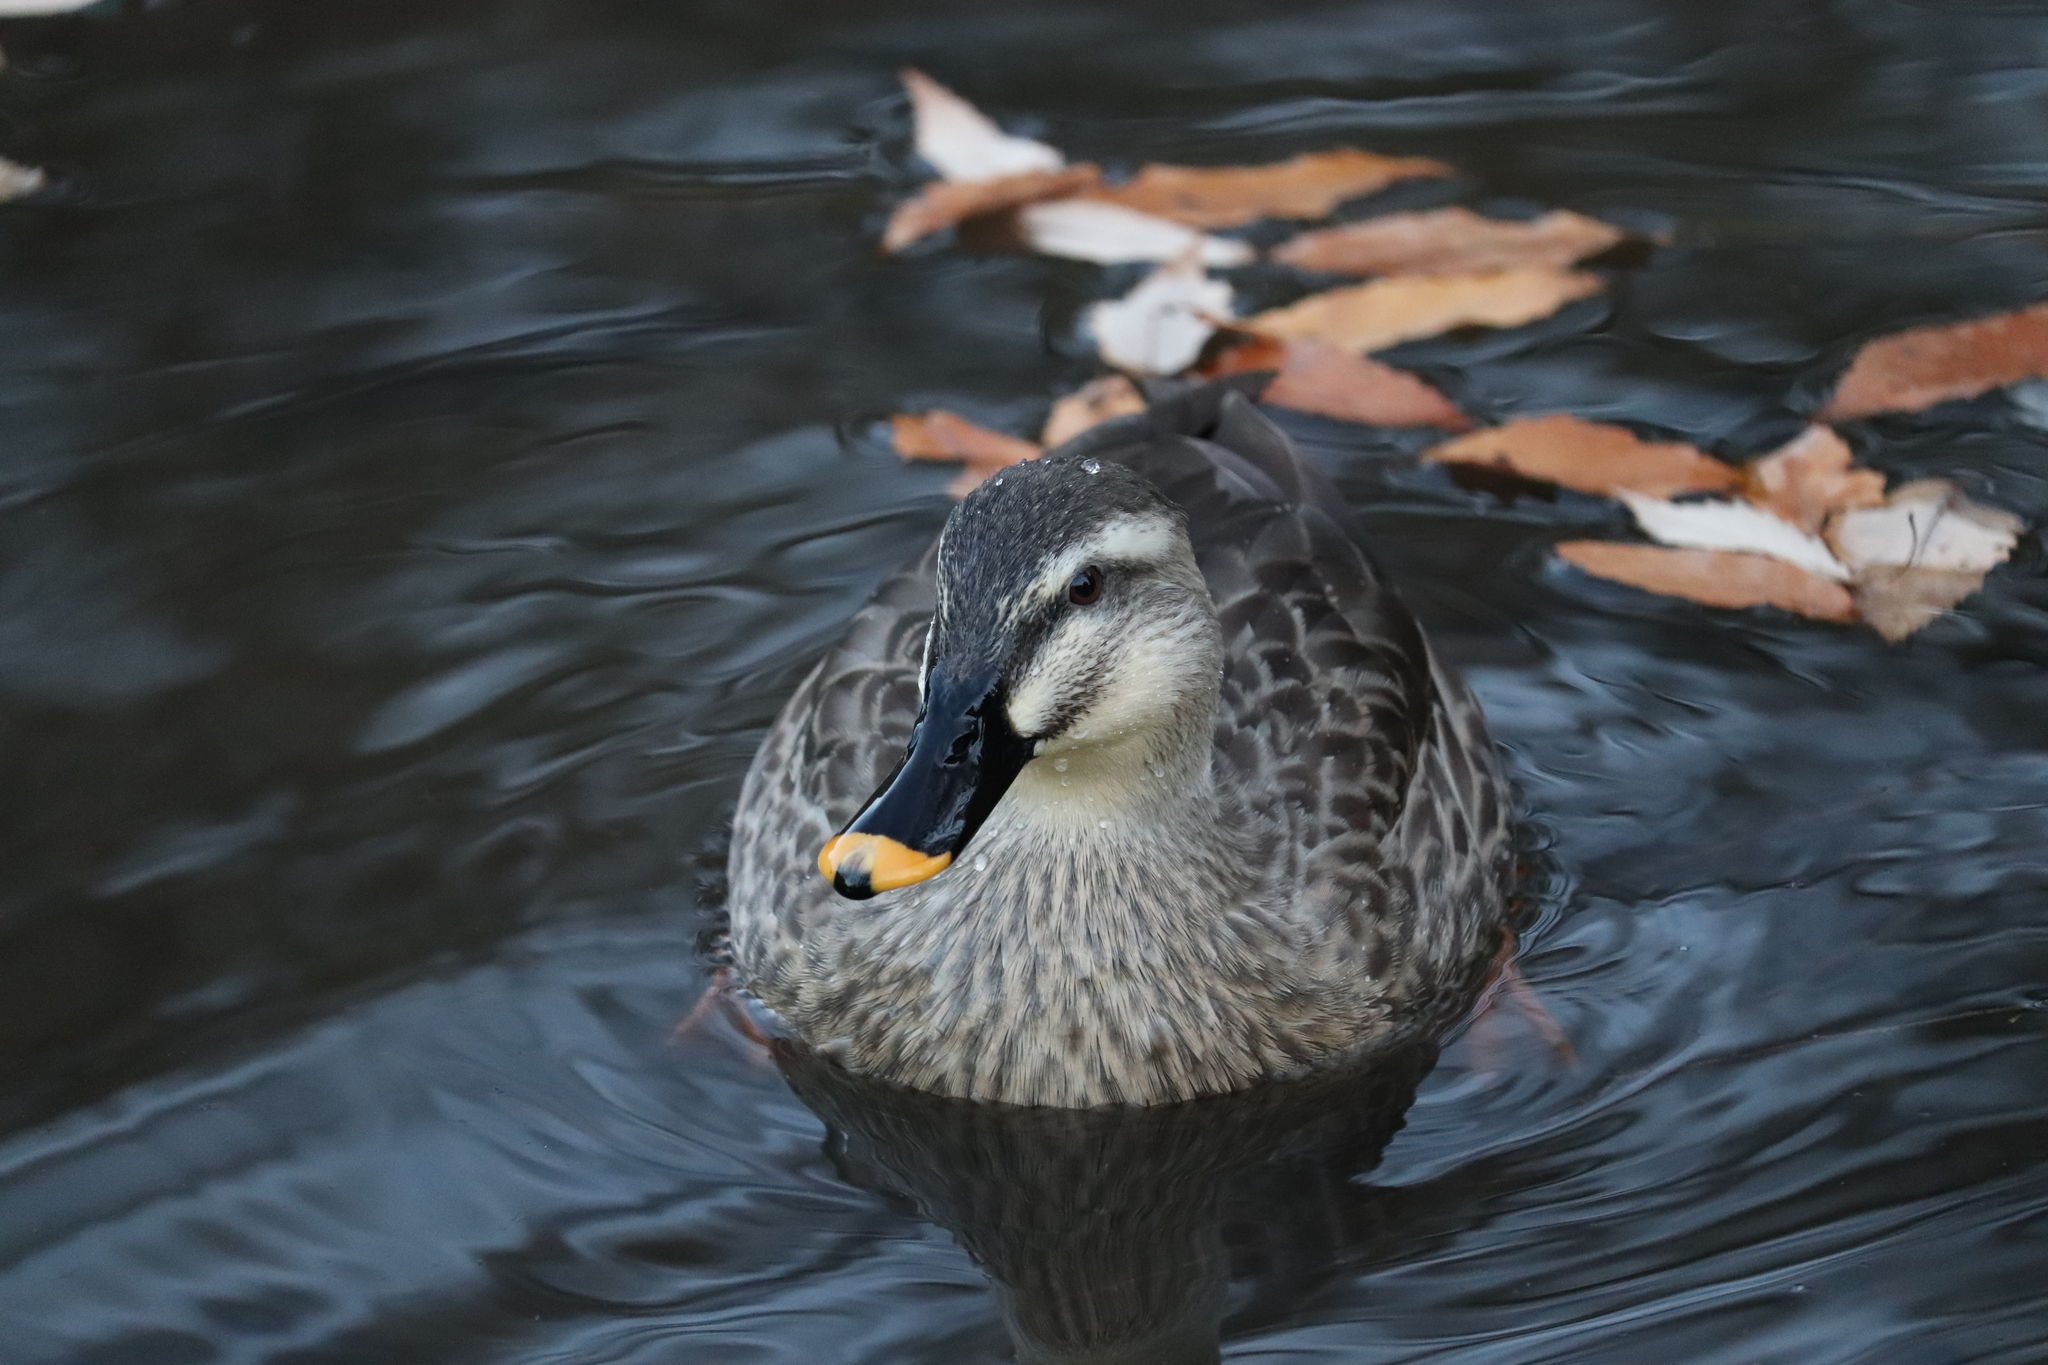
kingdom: Animalia
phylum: Chordata
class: Aves
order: Anseriformes
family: Anatidae
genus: Anas
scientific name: Anas zonorhyncha
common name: Eastern spot-billed duck
